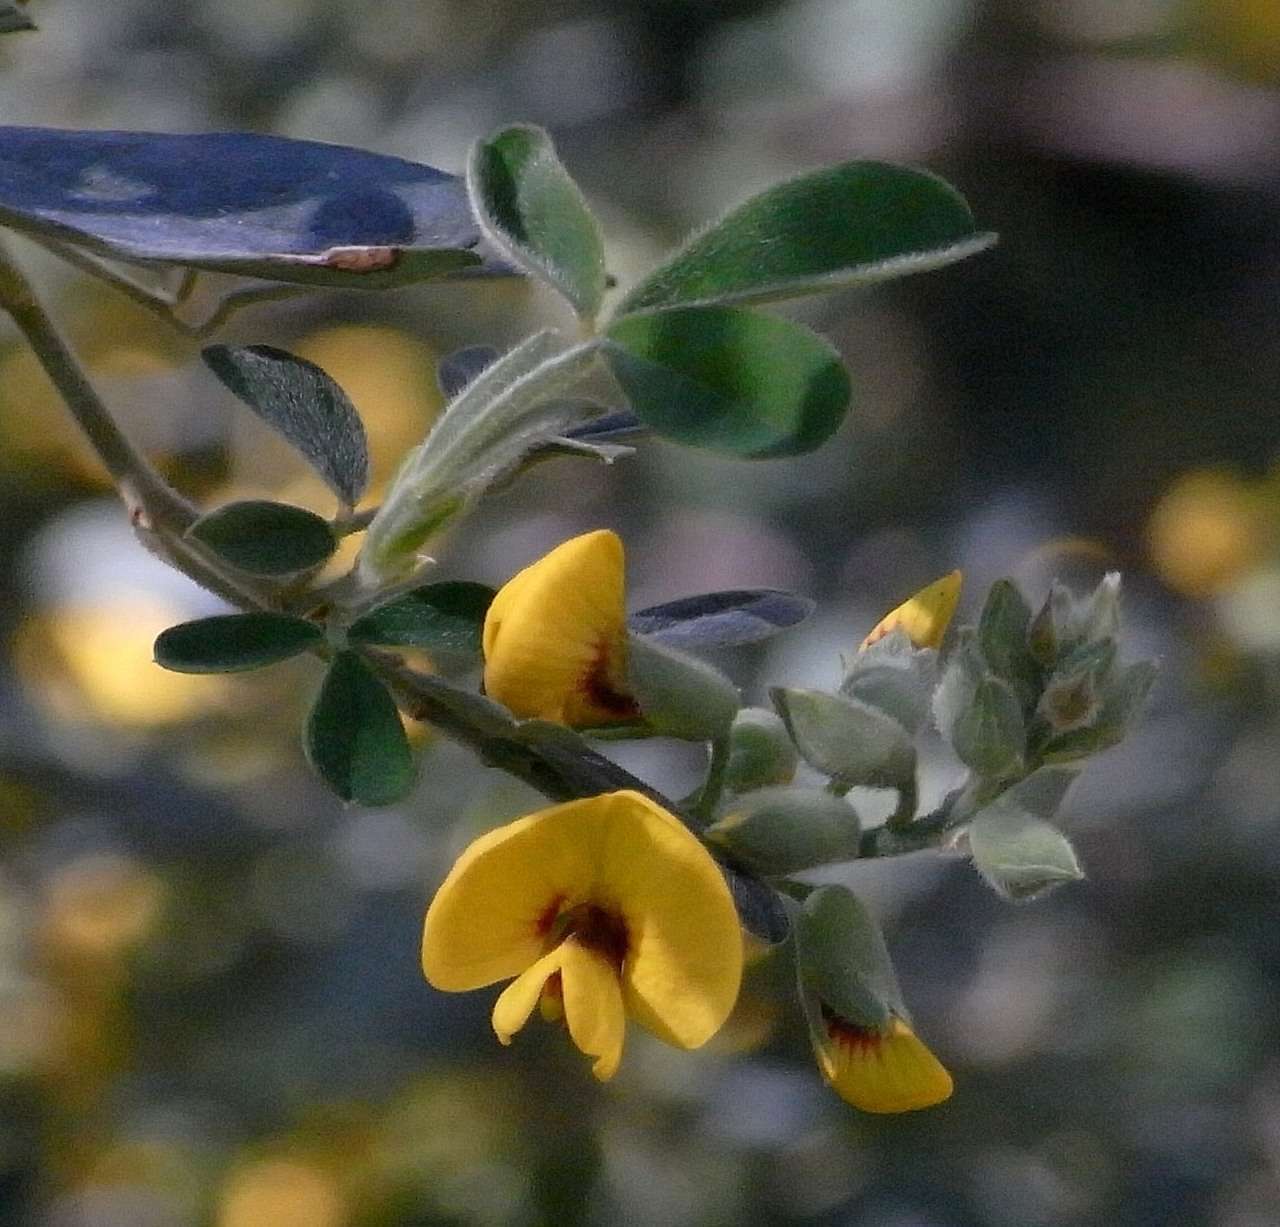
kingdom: Plantae
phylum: Tracheophyta
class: Magnoliopsida
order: Fabales
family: Fabaceae
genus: Goodia
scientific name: Goodia pubescens
